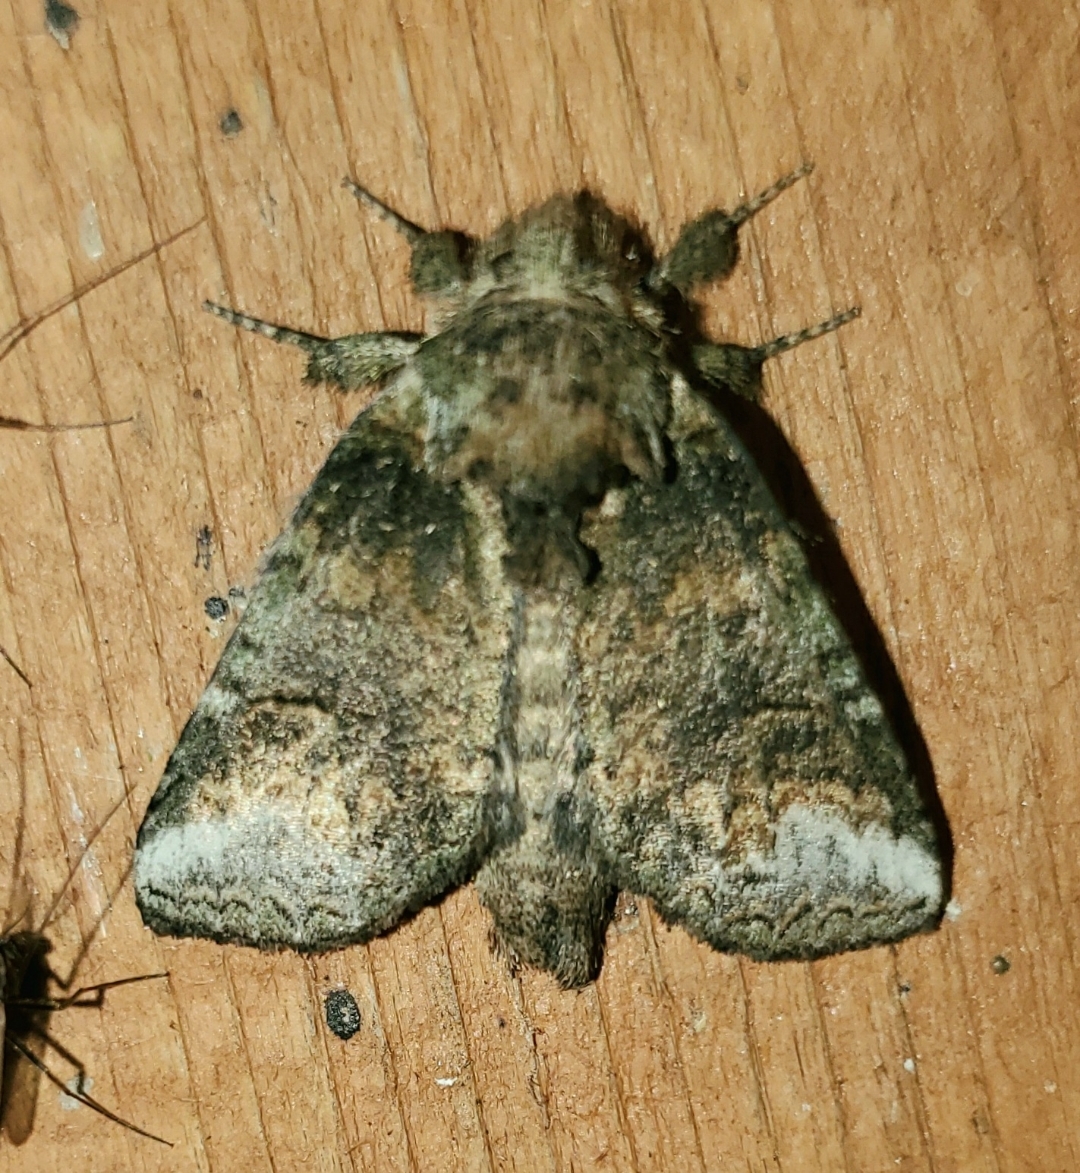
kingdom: Animalia
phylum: Arthropoda
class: Insecta
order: Lepidoptera
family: Notodontidae
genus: Rifargia
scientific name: Rifargia
